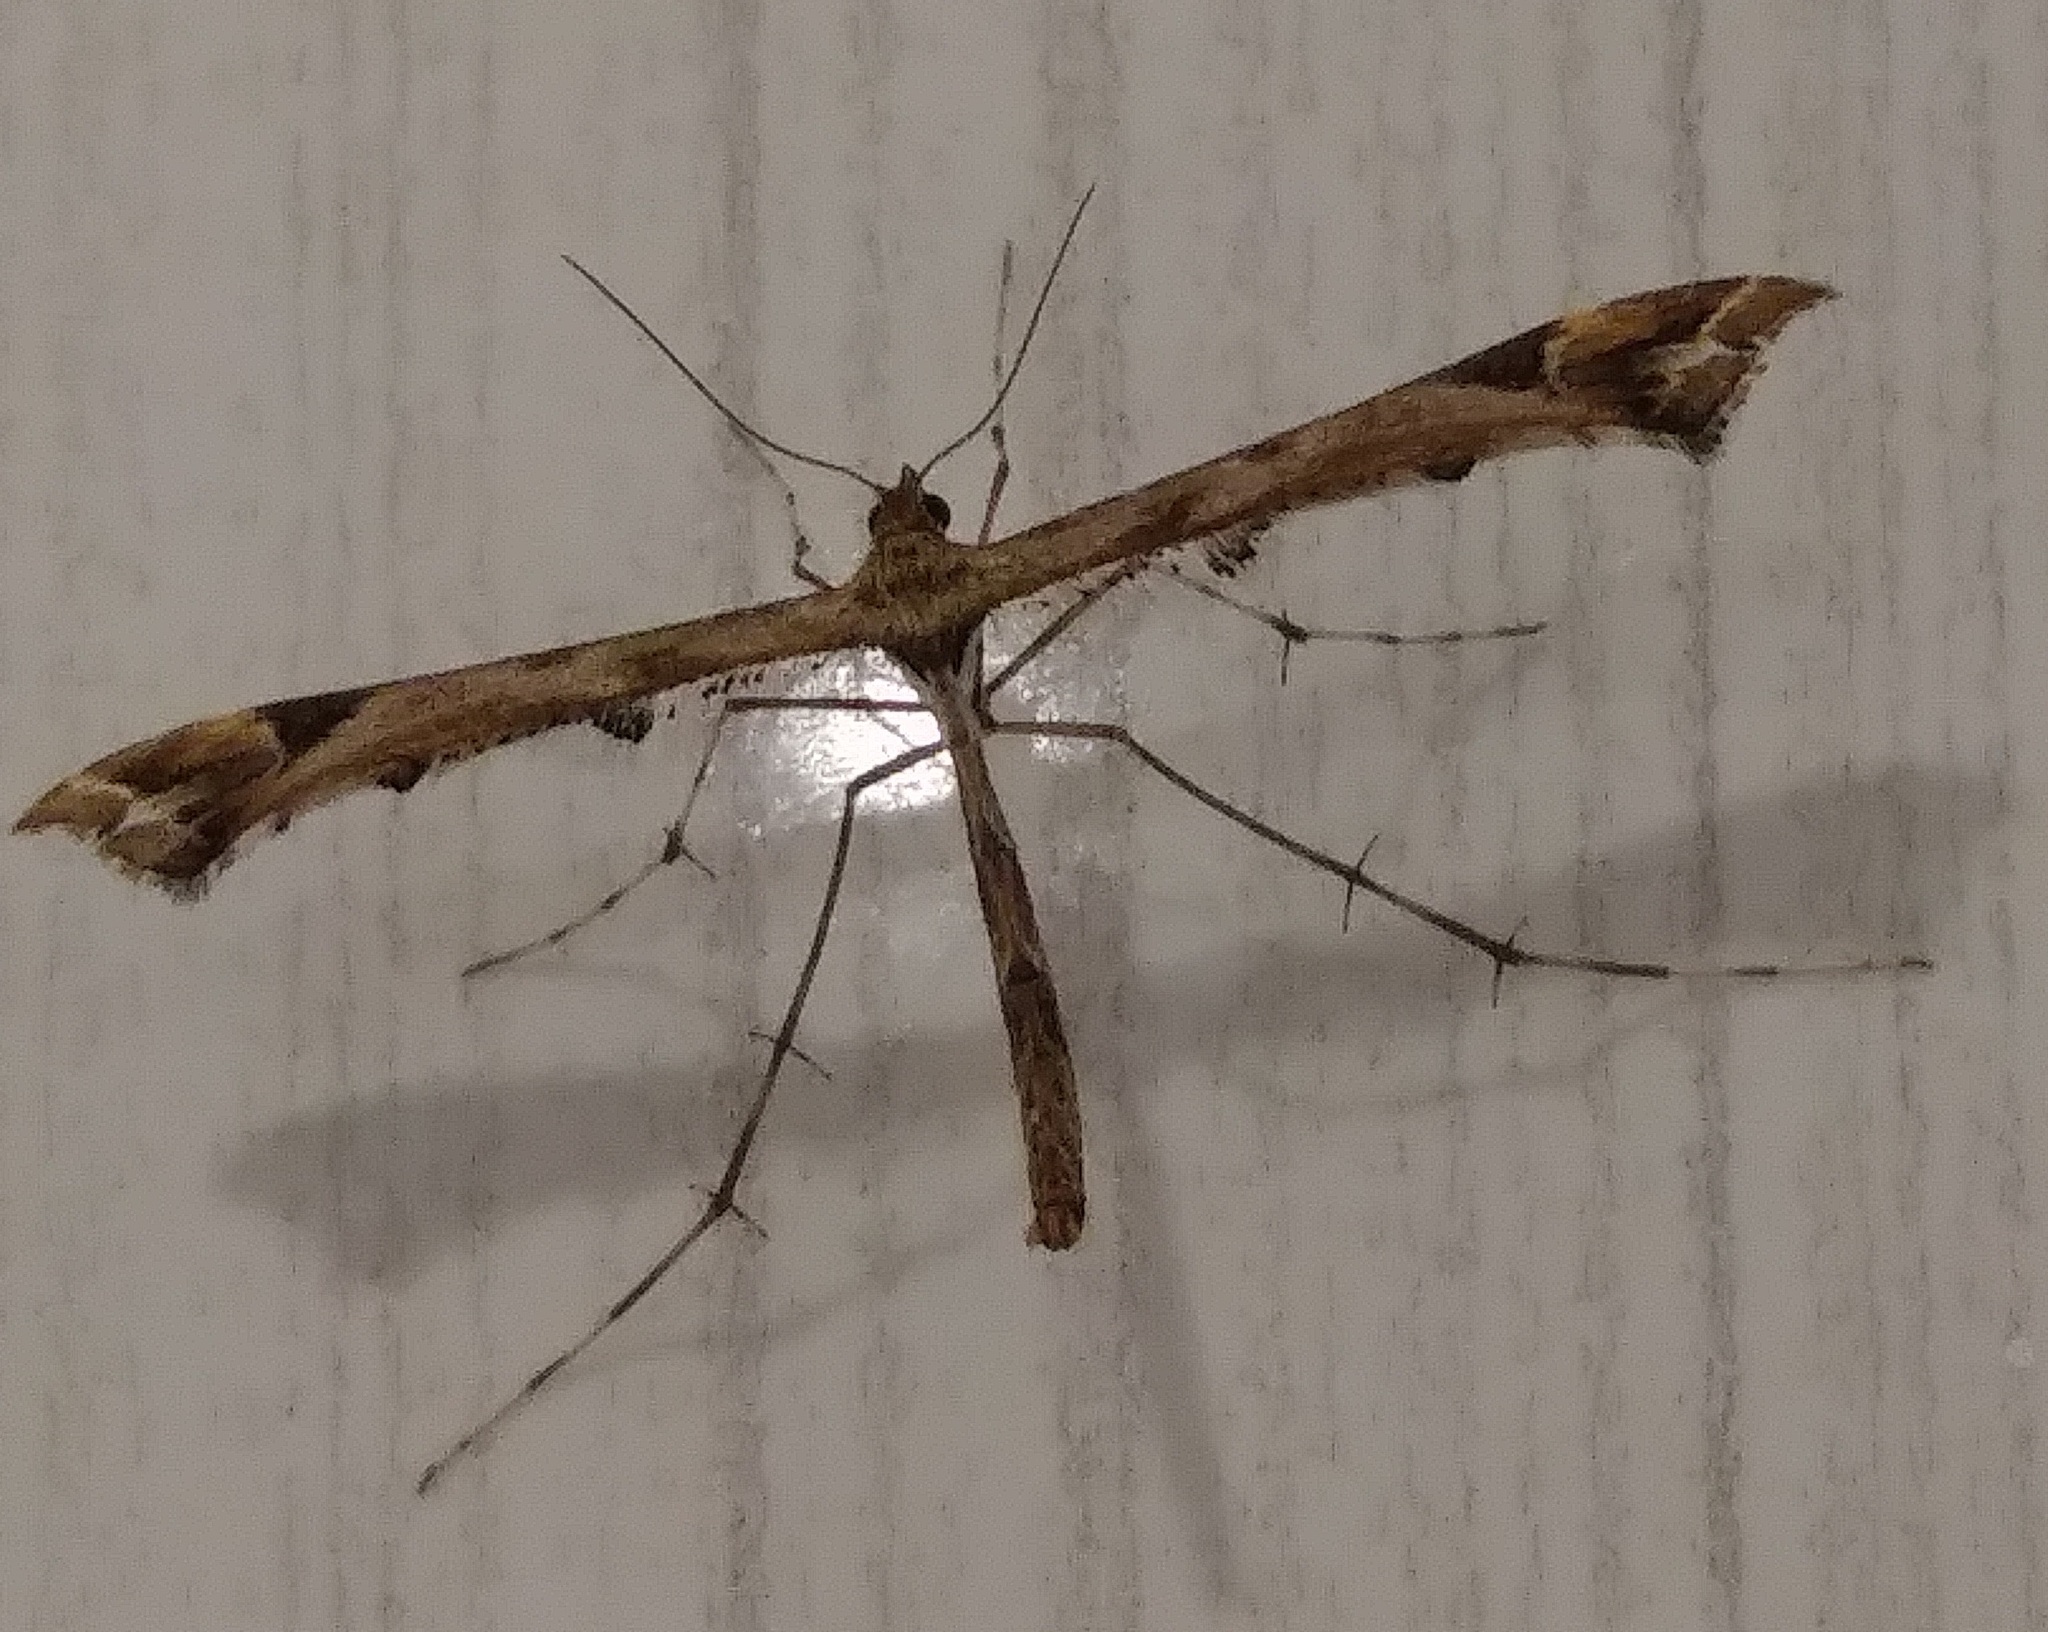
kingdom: Animalia
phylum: Arthropoda
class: Insecta
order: Lepidoptera
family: Pterophoridae
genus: Amblyptilia
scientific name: Amblyptilia acanthadactyla
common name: Beautiful plume
